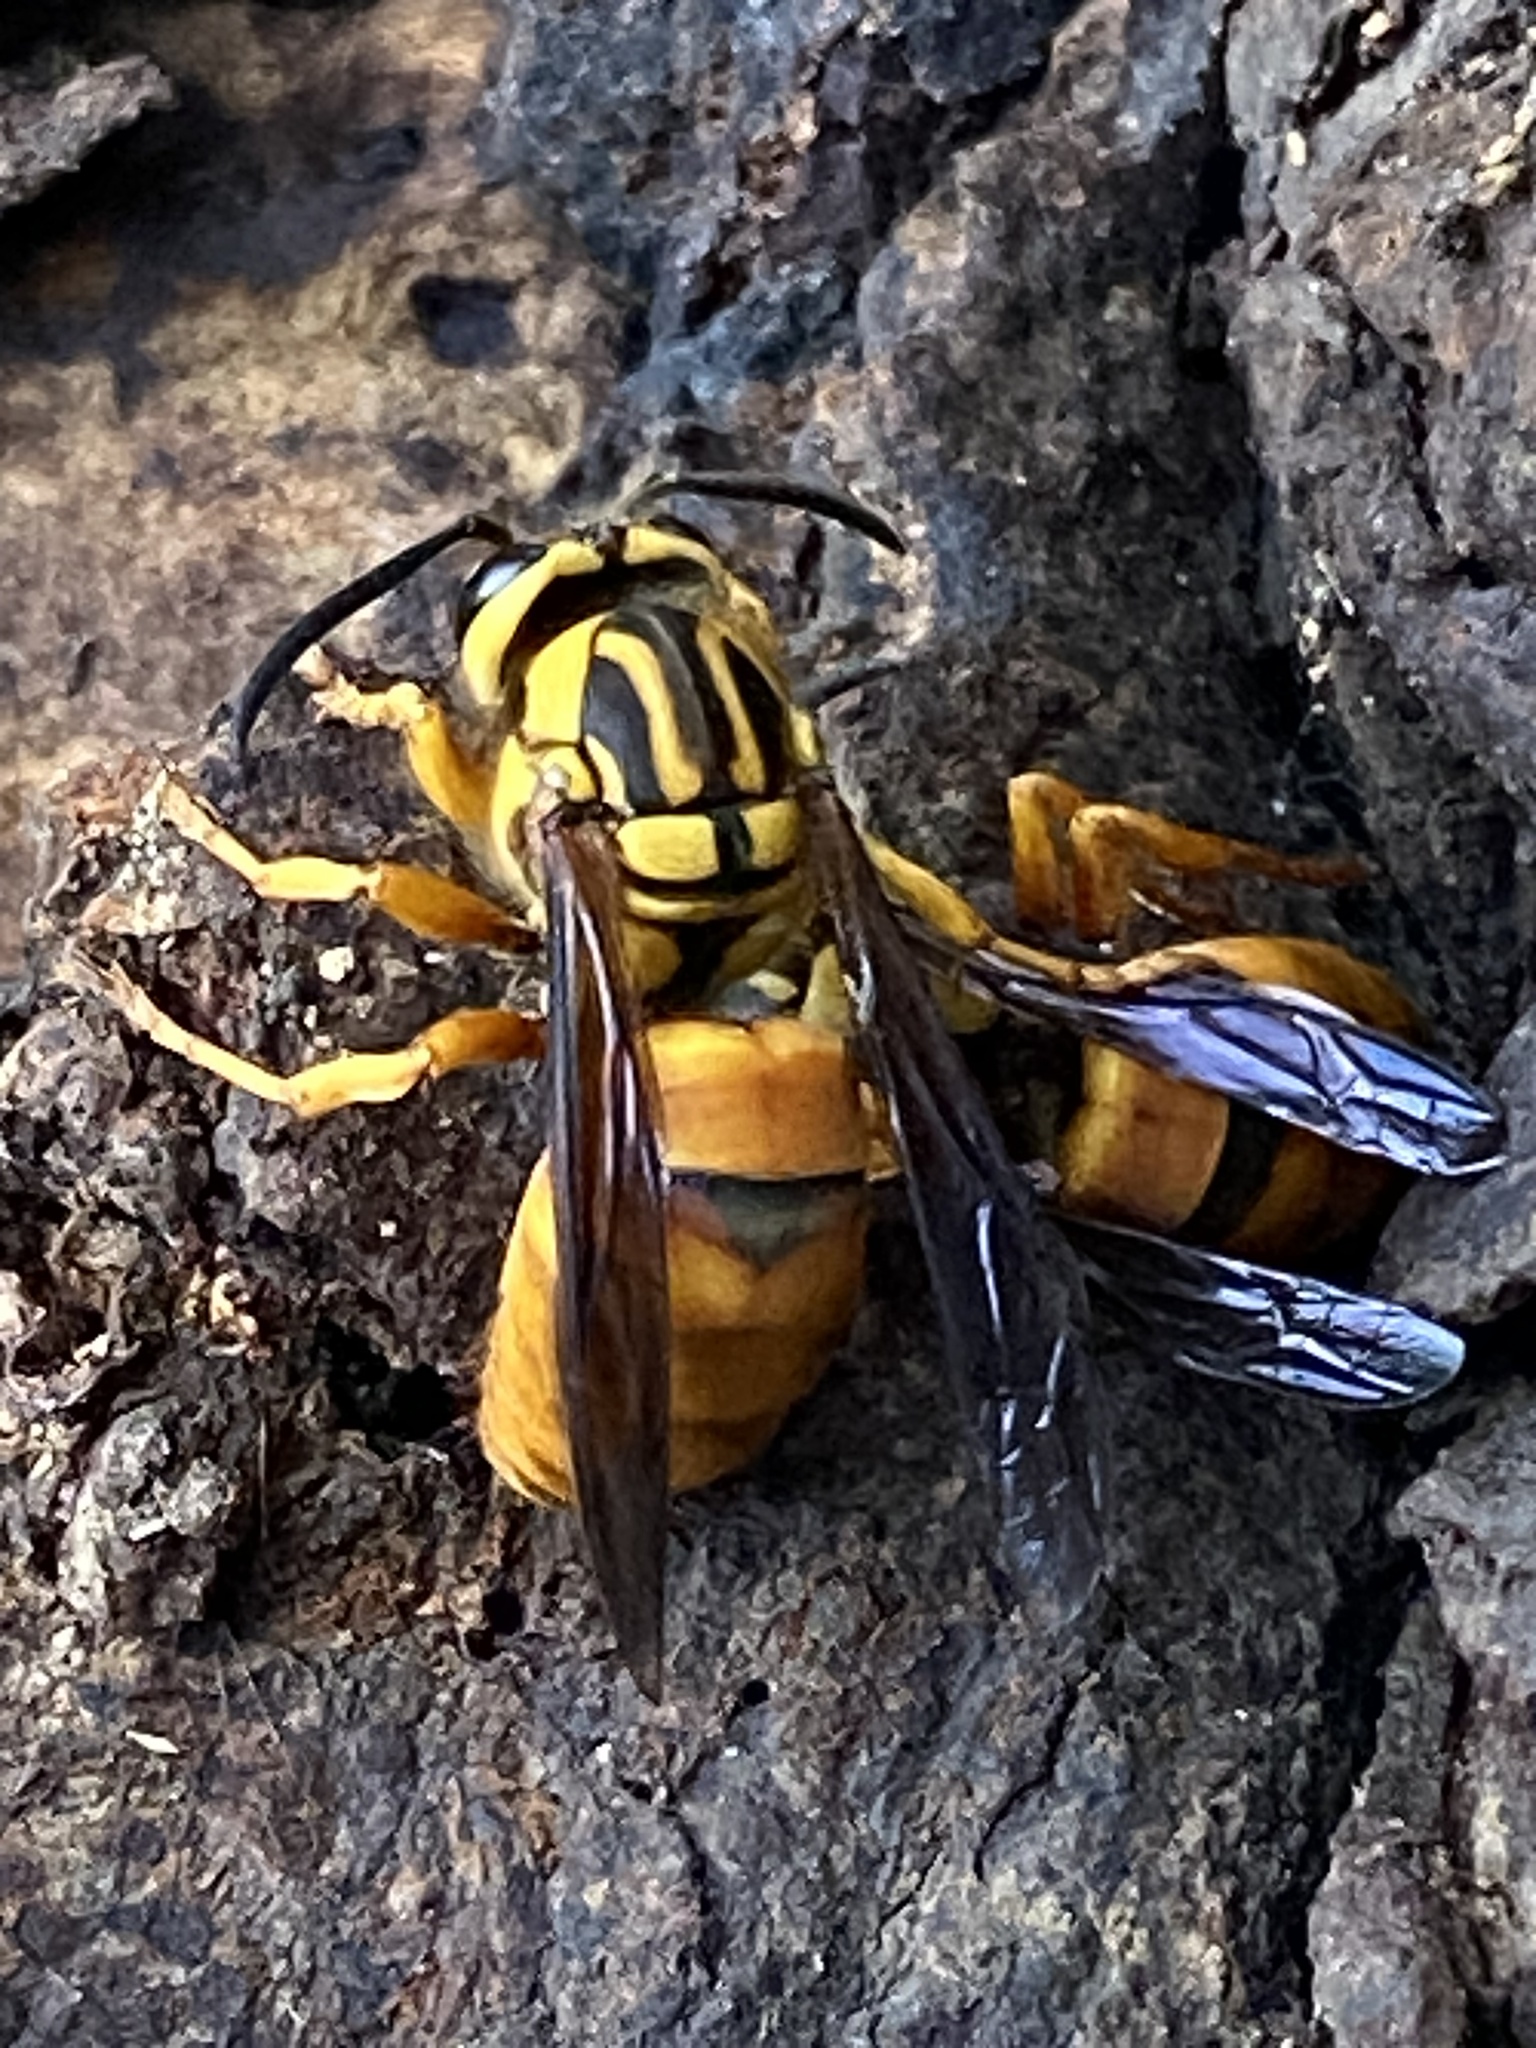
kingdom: Animalia
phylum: Arthropoda
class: Insecta
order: Hymenoptera
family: Vespidae
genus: Vespula
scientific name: Vespula squamosa
